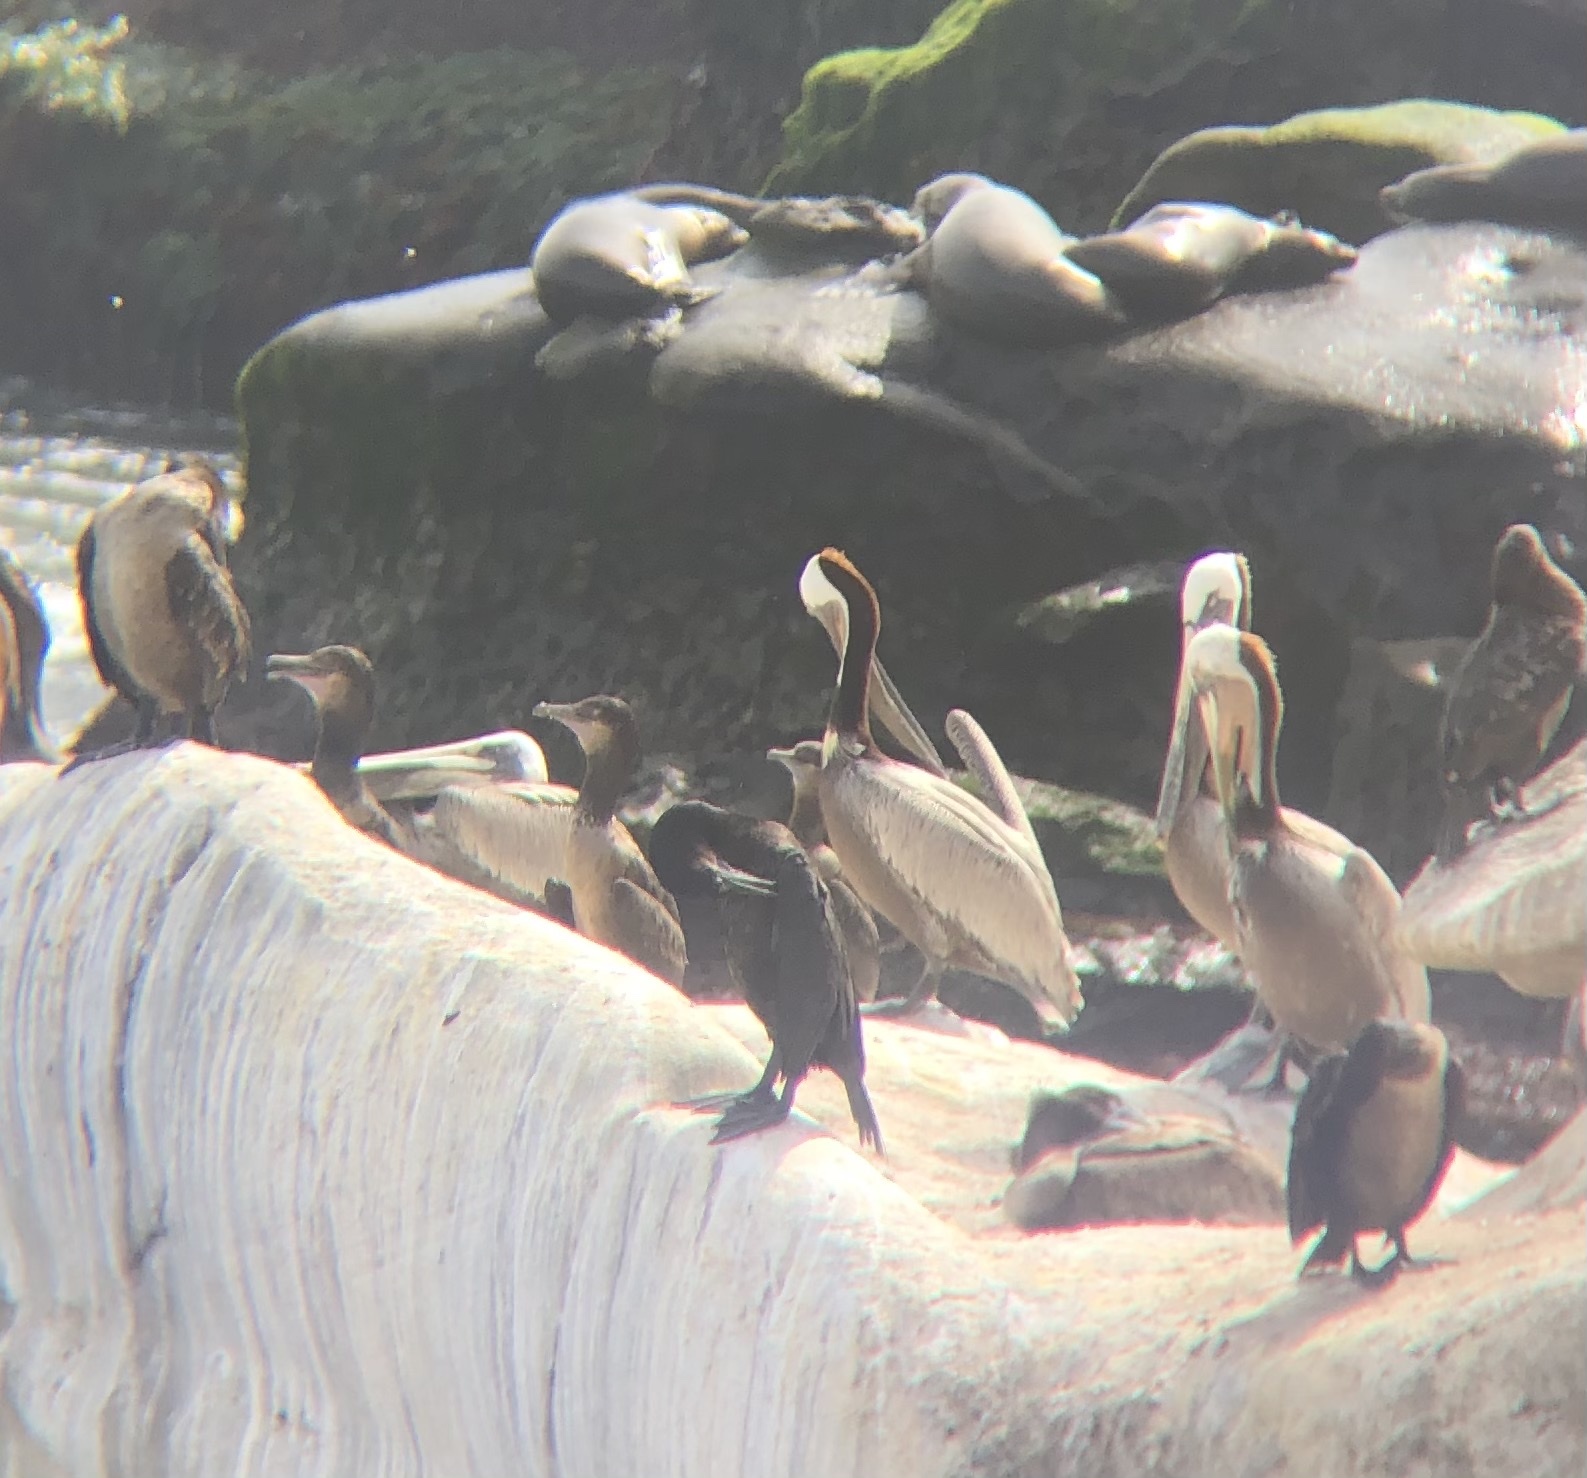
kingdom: Animalia
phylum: Chordata
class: Aves
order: Pelecaniformes
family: Pelecanidae
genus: Pelecanus
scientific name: Pelecanus occidentalis
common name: Brown pelican
